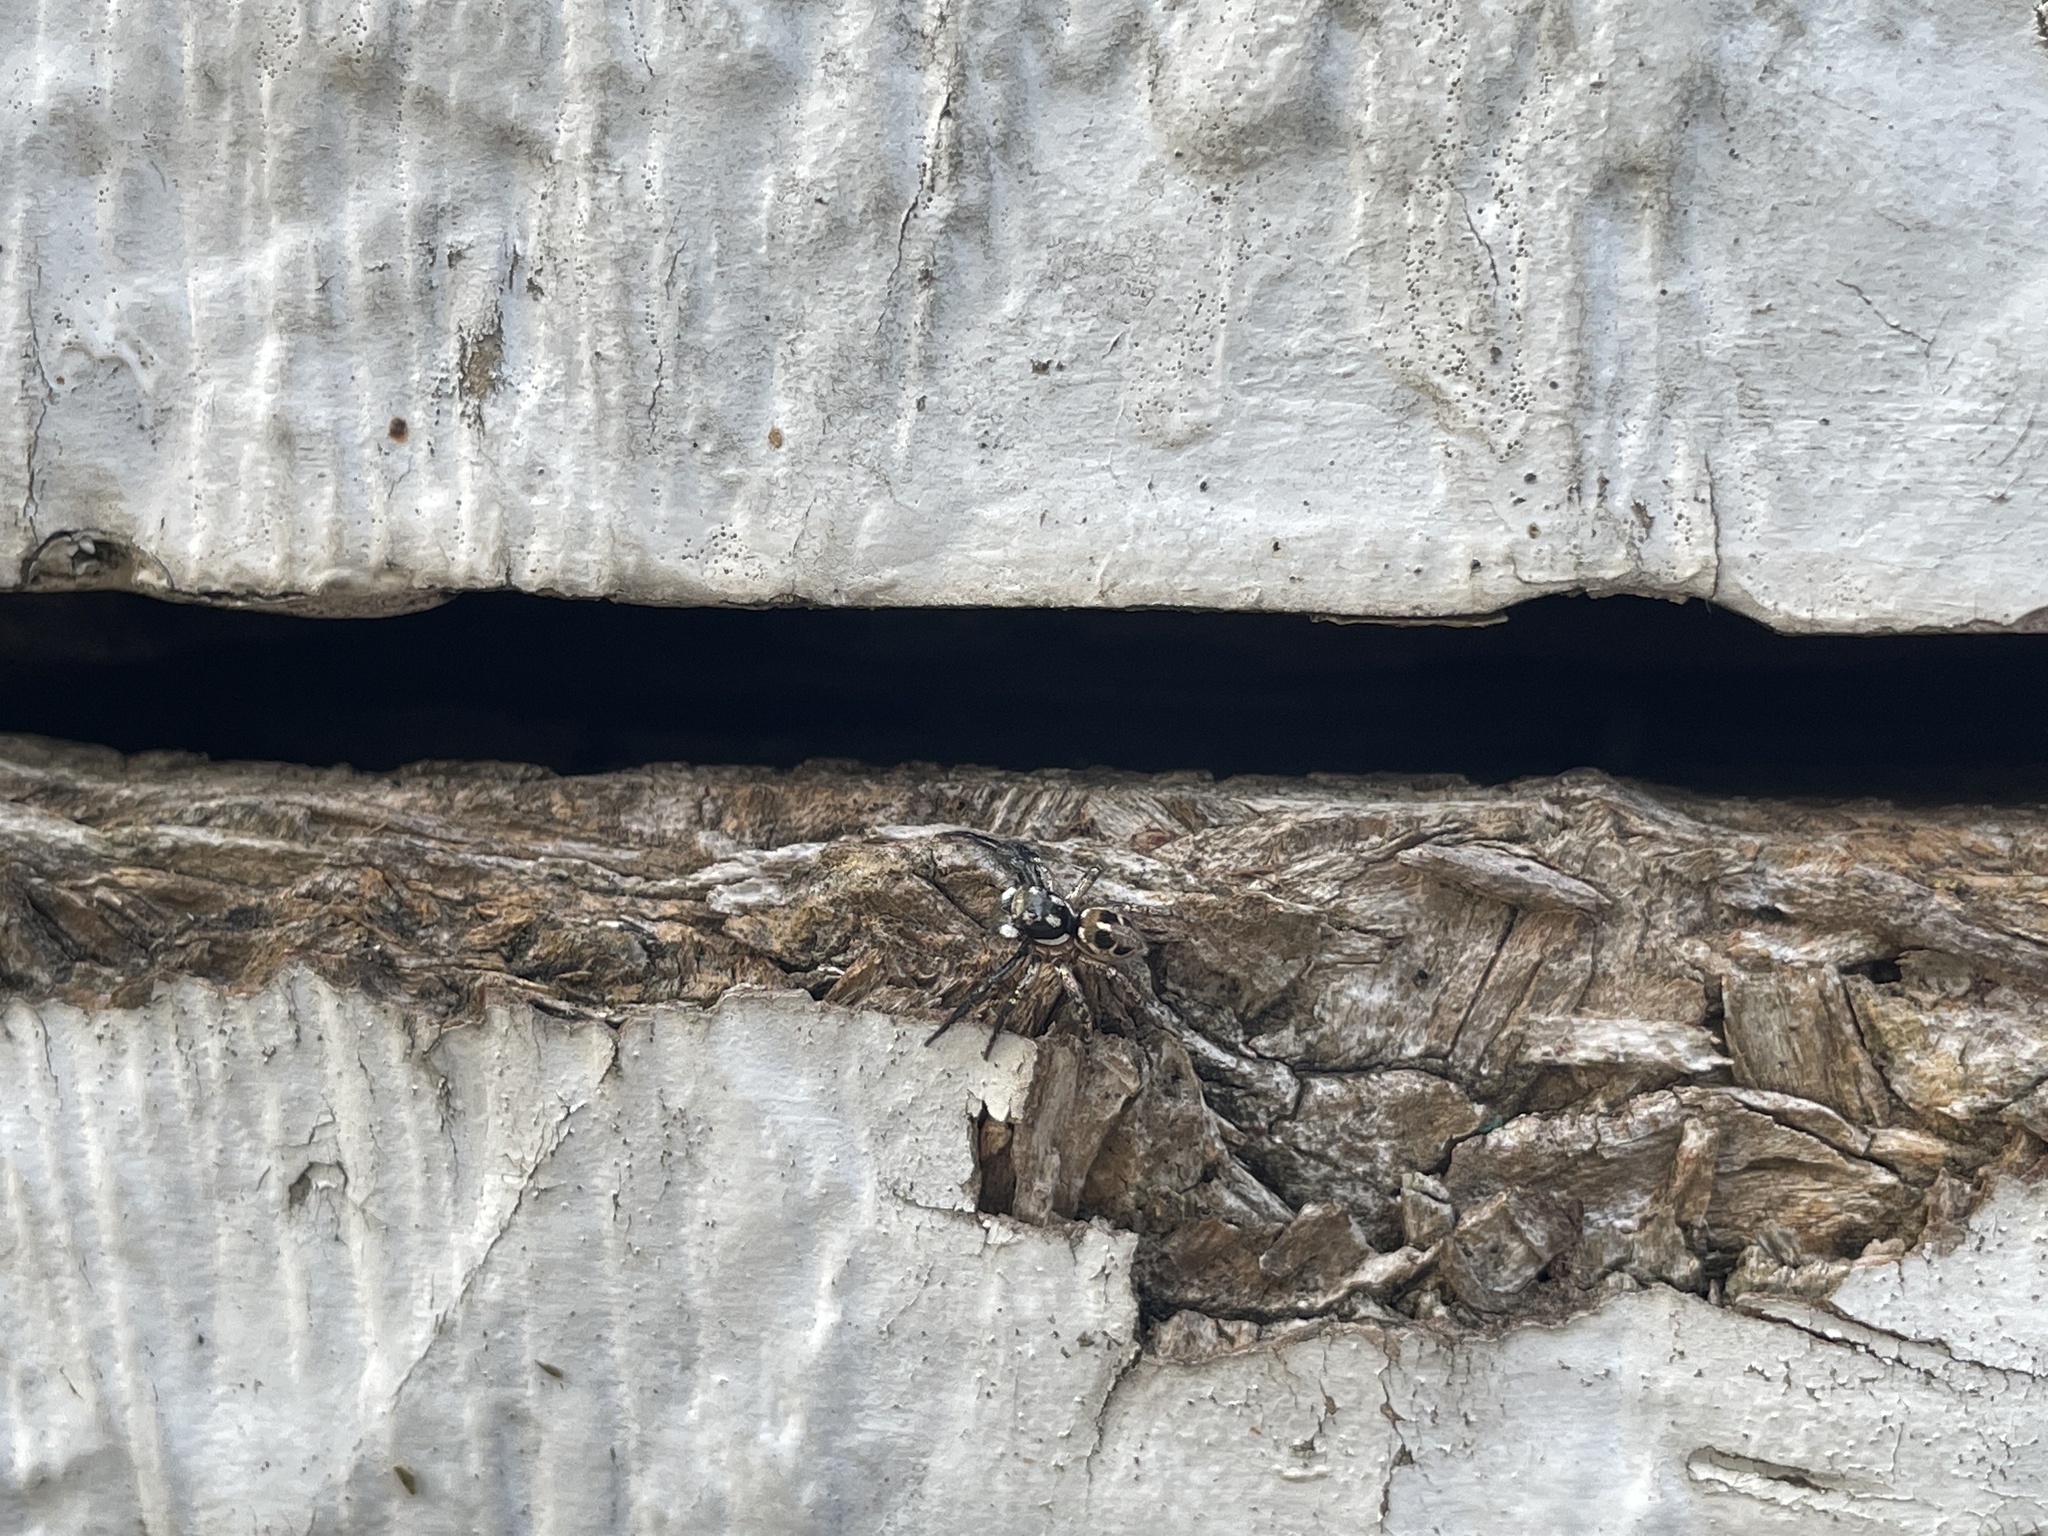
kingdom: Animalia
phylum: Arthropoda
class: Arachnida
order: Araneae
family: Salticidae
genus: Anasaitis
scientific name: Anasaitis canosa
